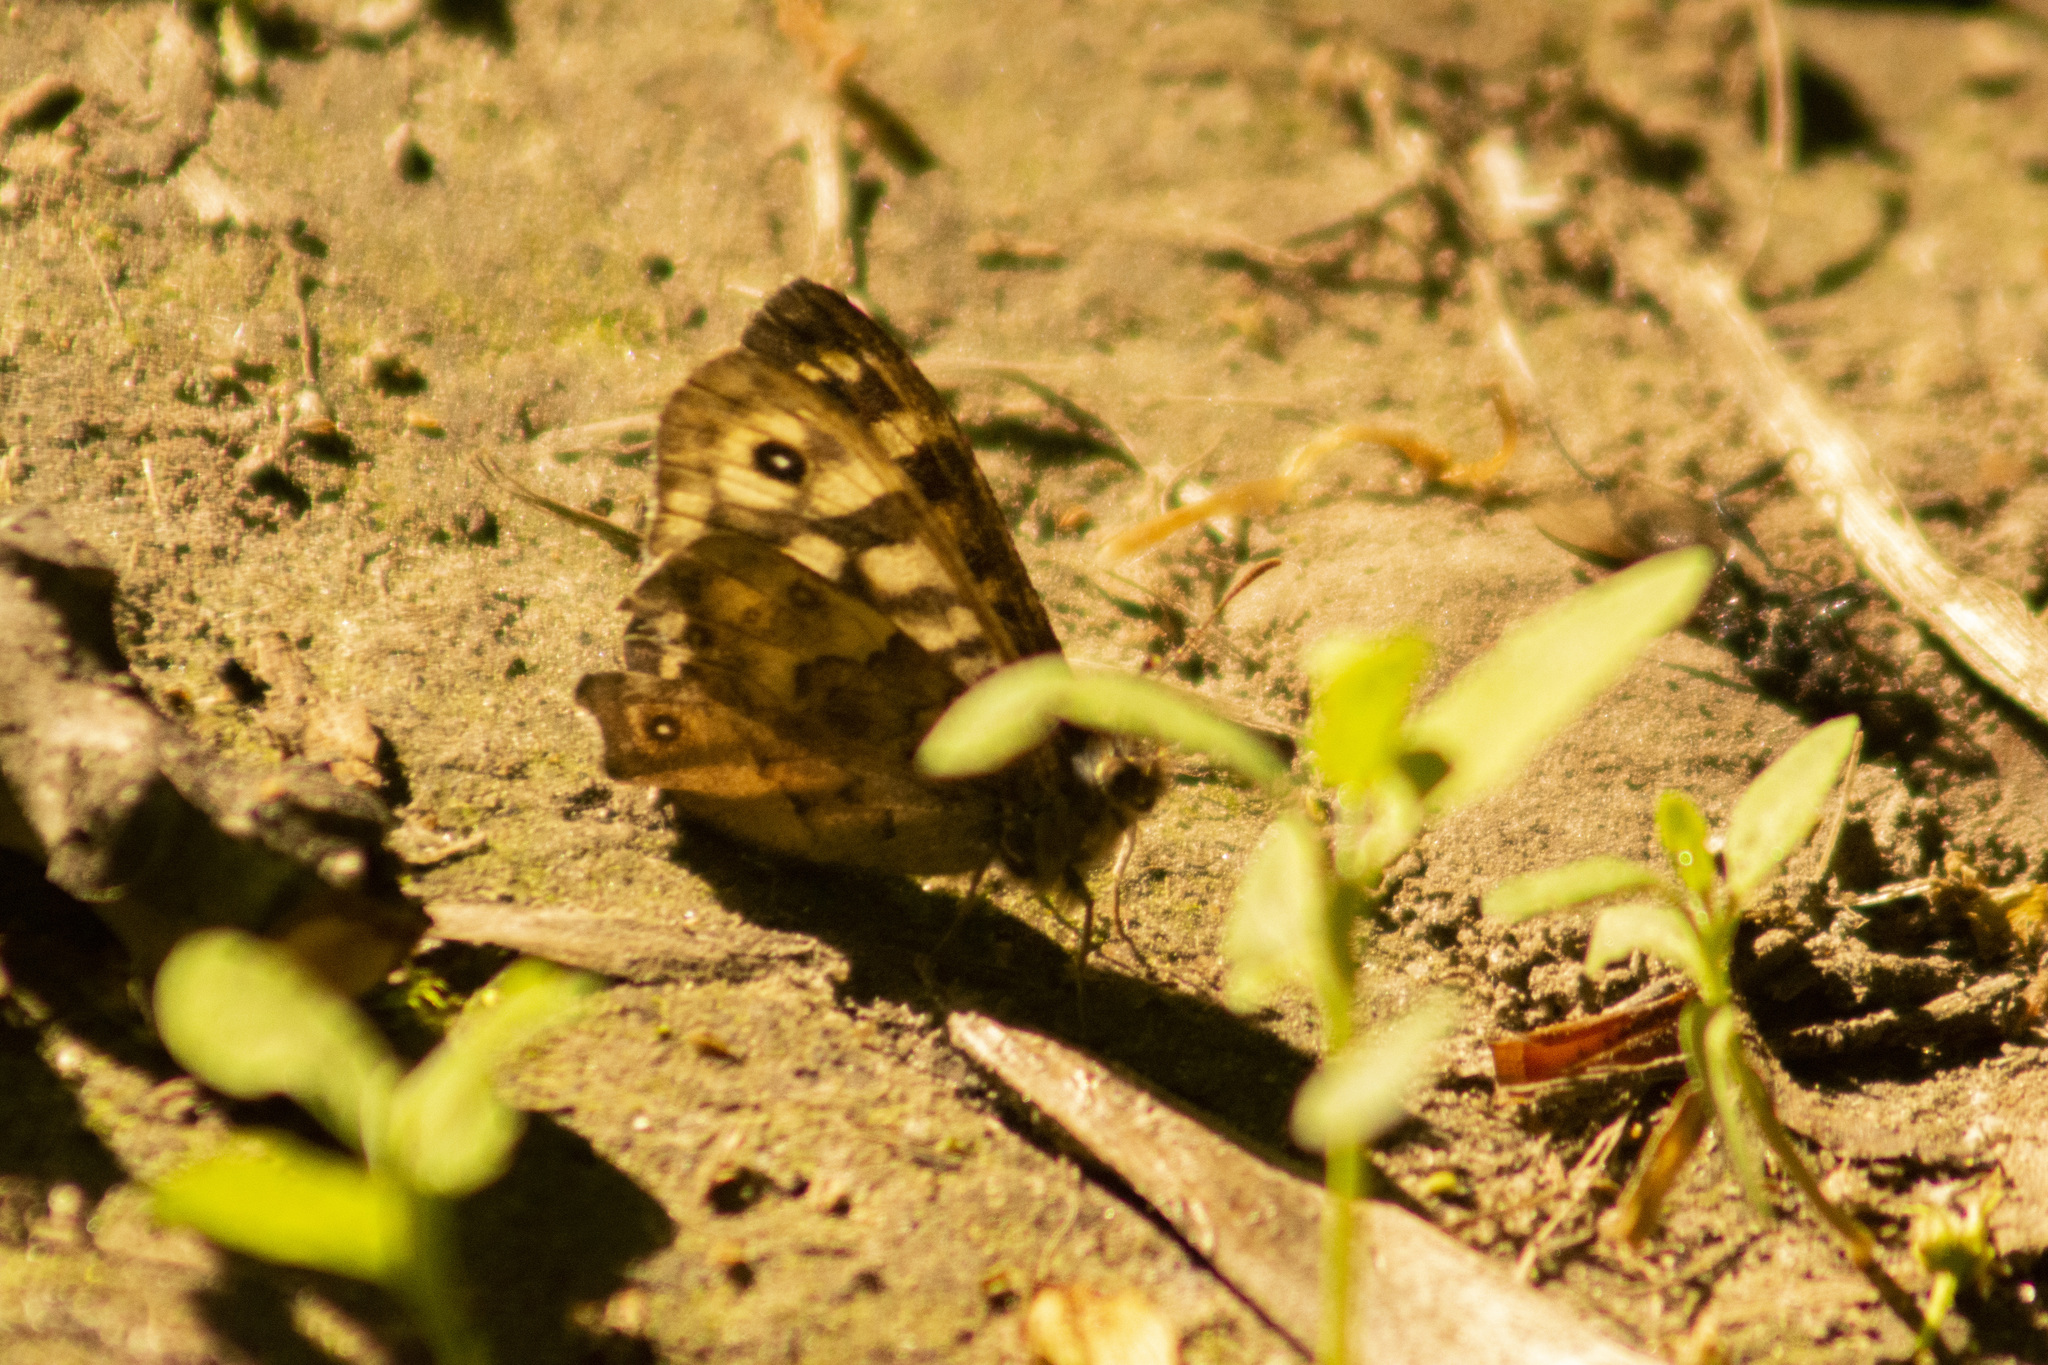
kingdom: Animalia
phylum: Arthropoda
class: Insecta
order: Lepidoptera
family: Nymphalidae
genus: Pararge
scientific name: Pararge aegeria
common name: Speckled wood
